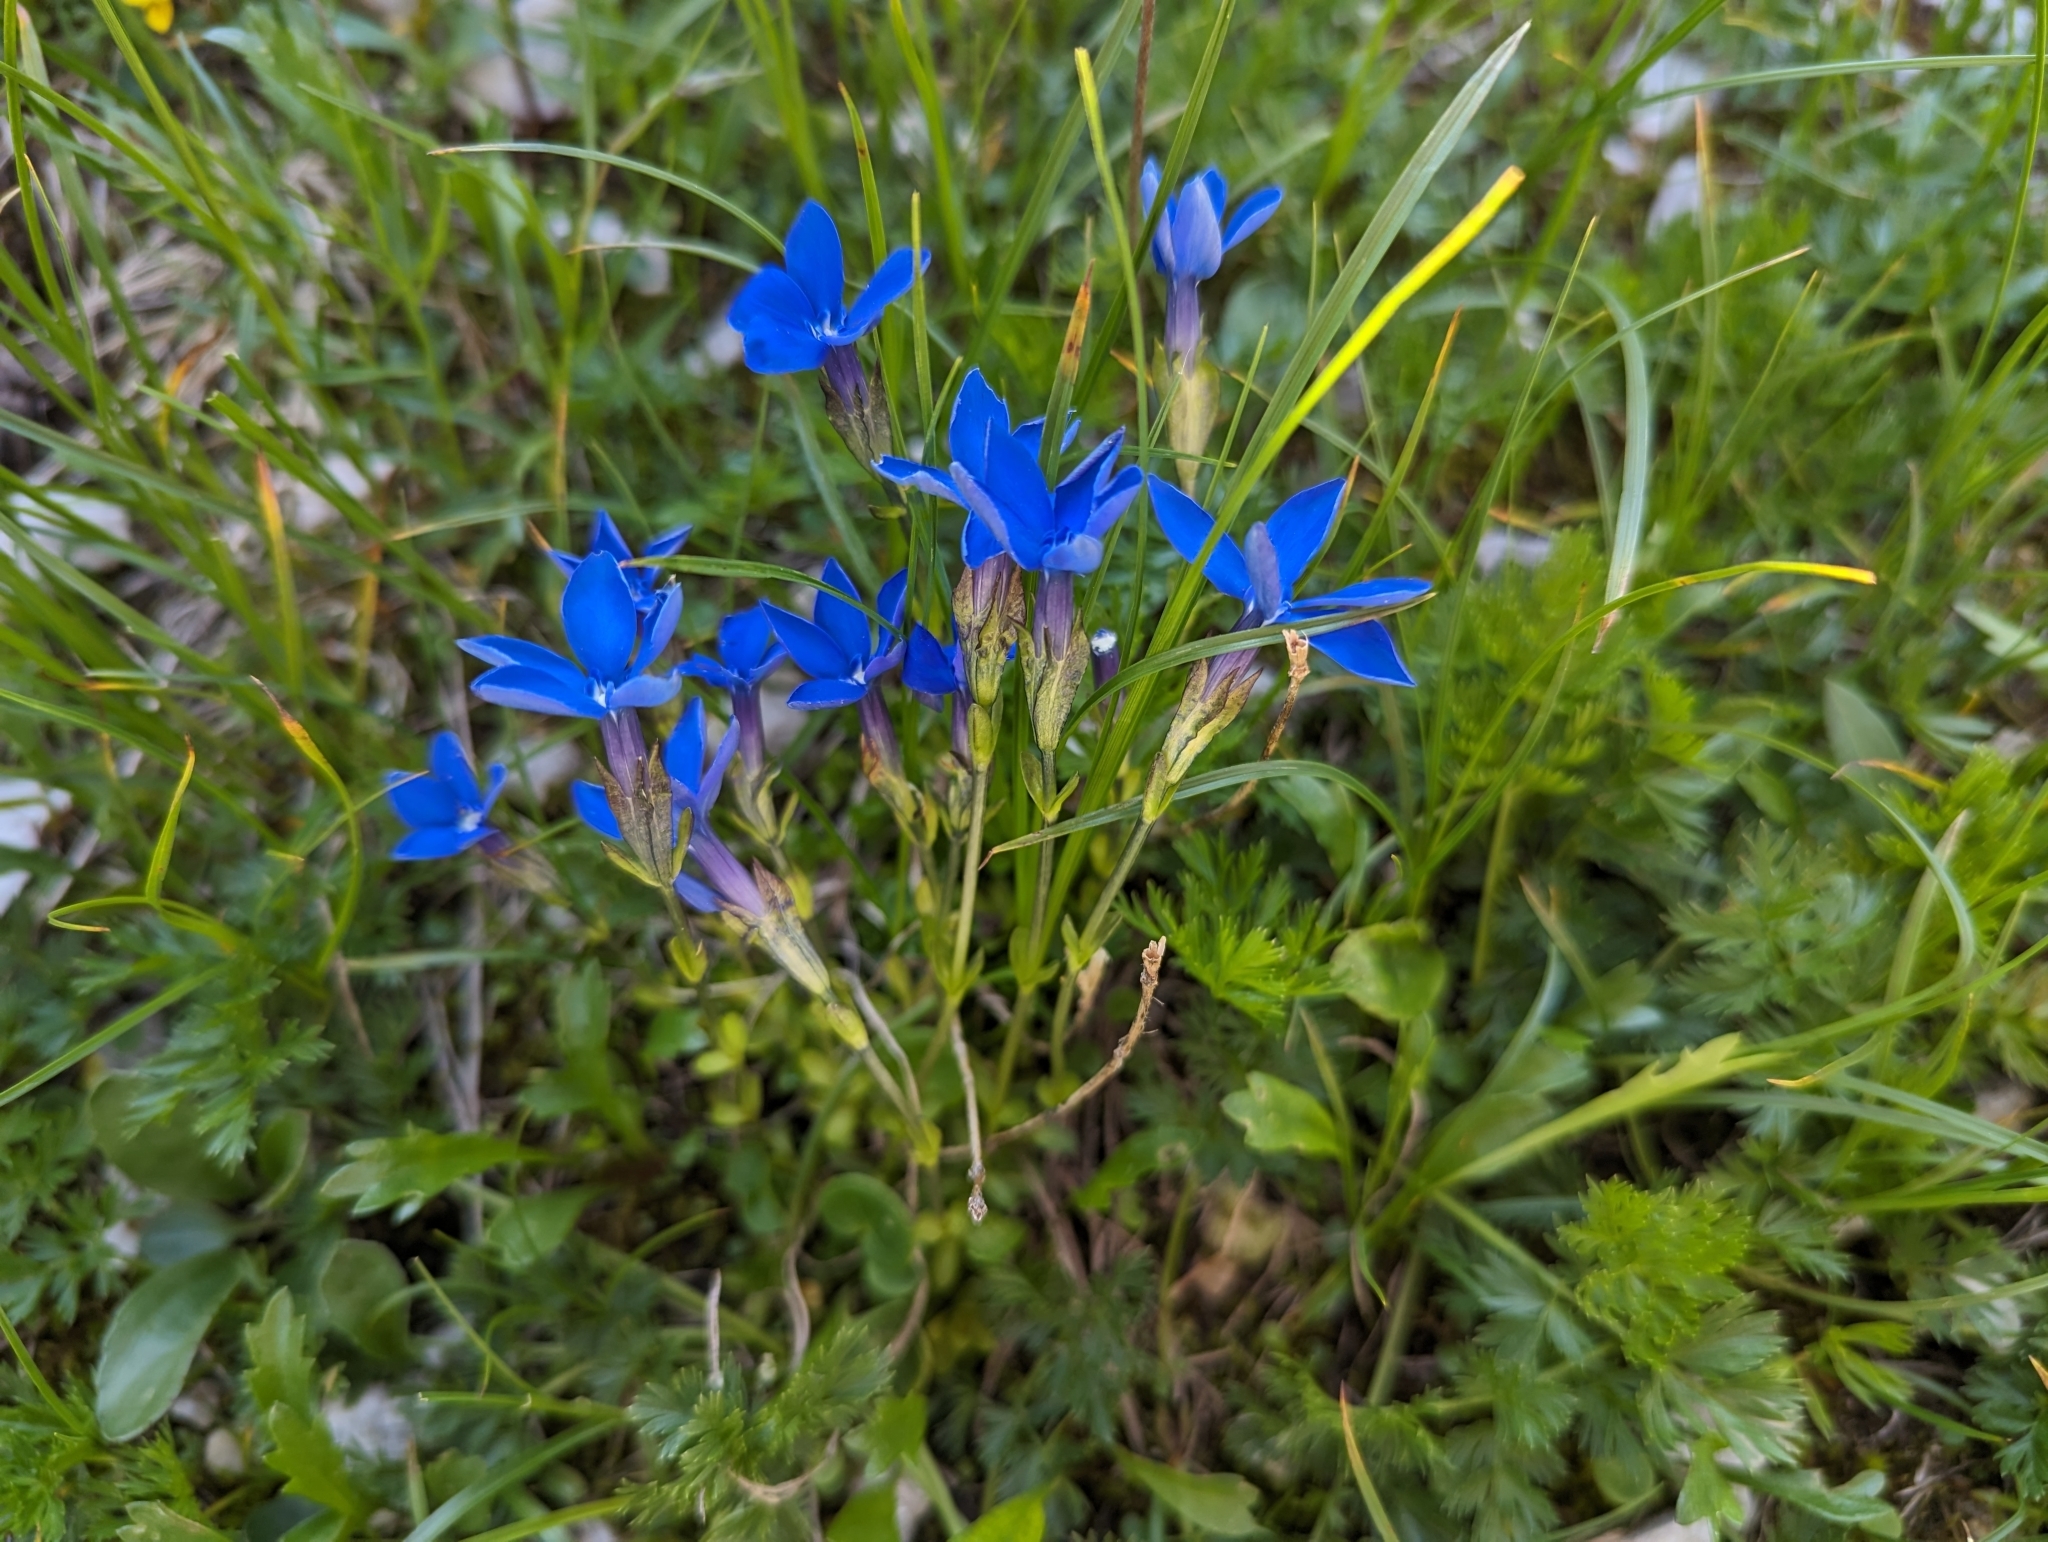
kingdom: Plantae
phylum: Tracheophyta
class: Magnoliopsida
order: Gentianales
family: Gentianaceae
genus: Gentiana
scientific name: Gentiana bavarica
